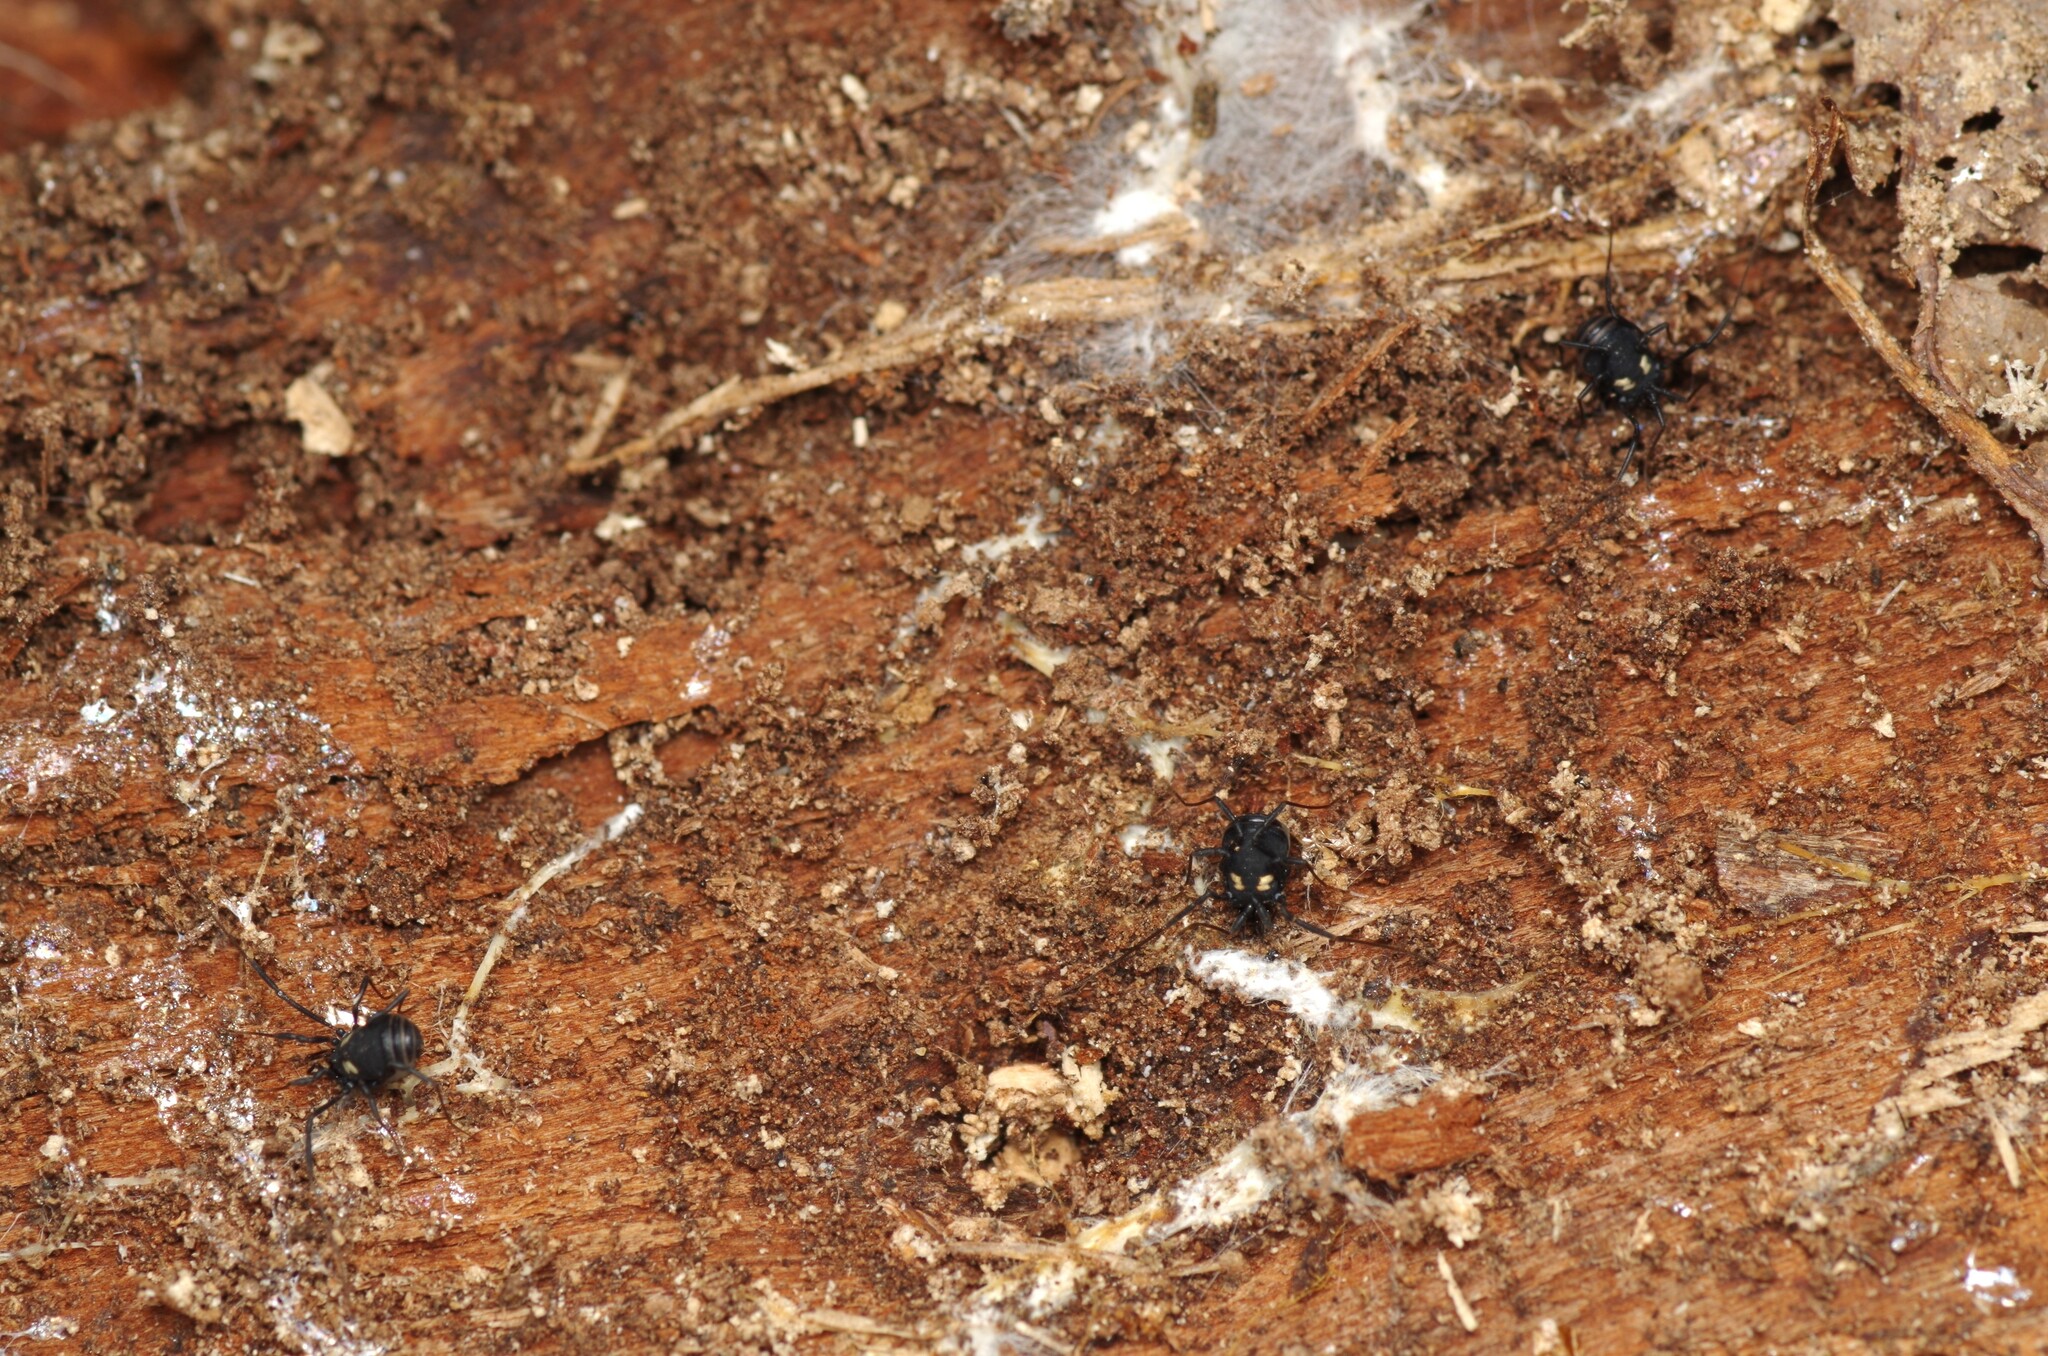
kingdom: Animalia
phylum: Arthropoda
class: Arachnida
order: Opiliones
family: Nemastomatidae
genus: Nemastoma
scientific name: Nemastoma bimaculatum
